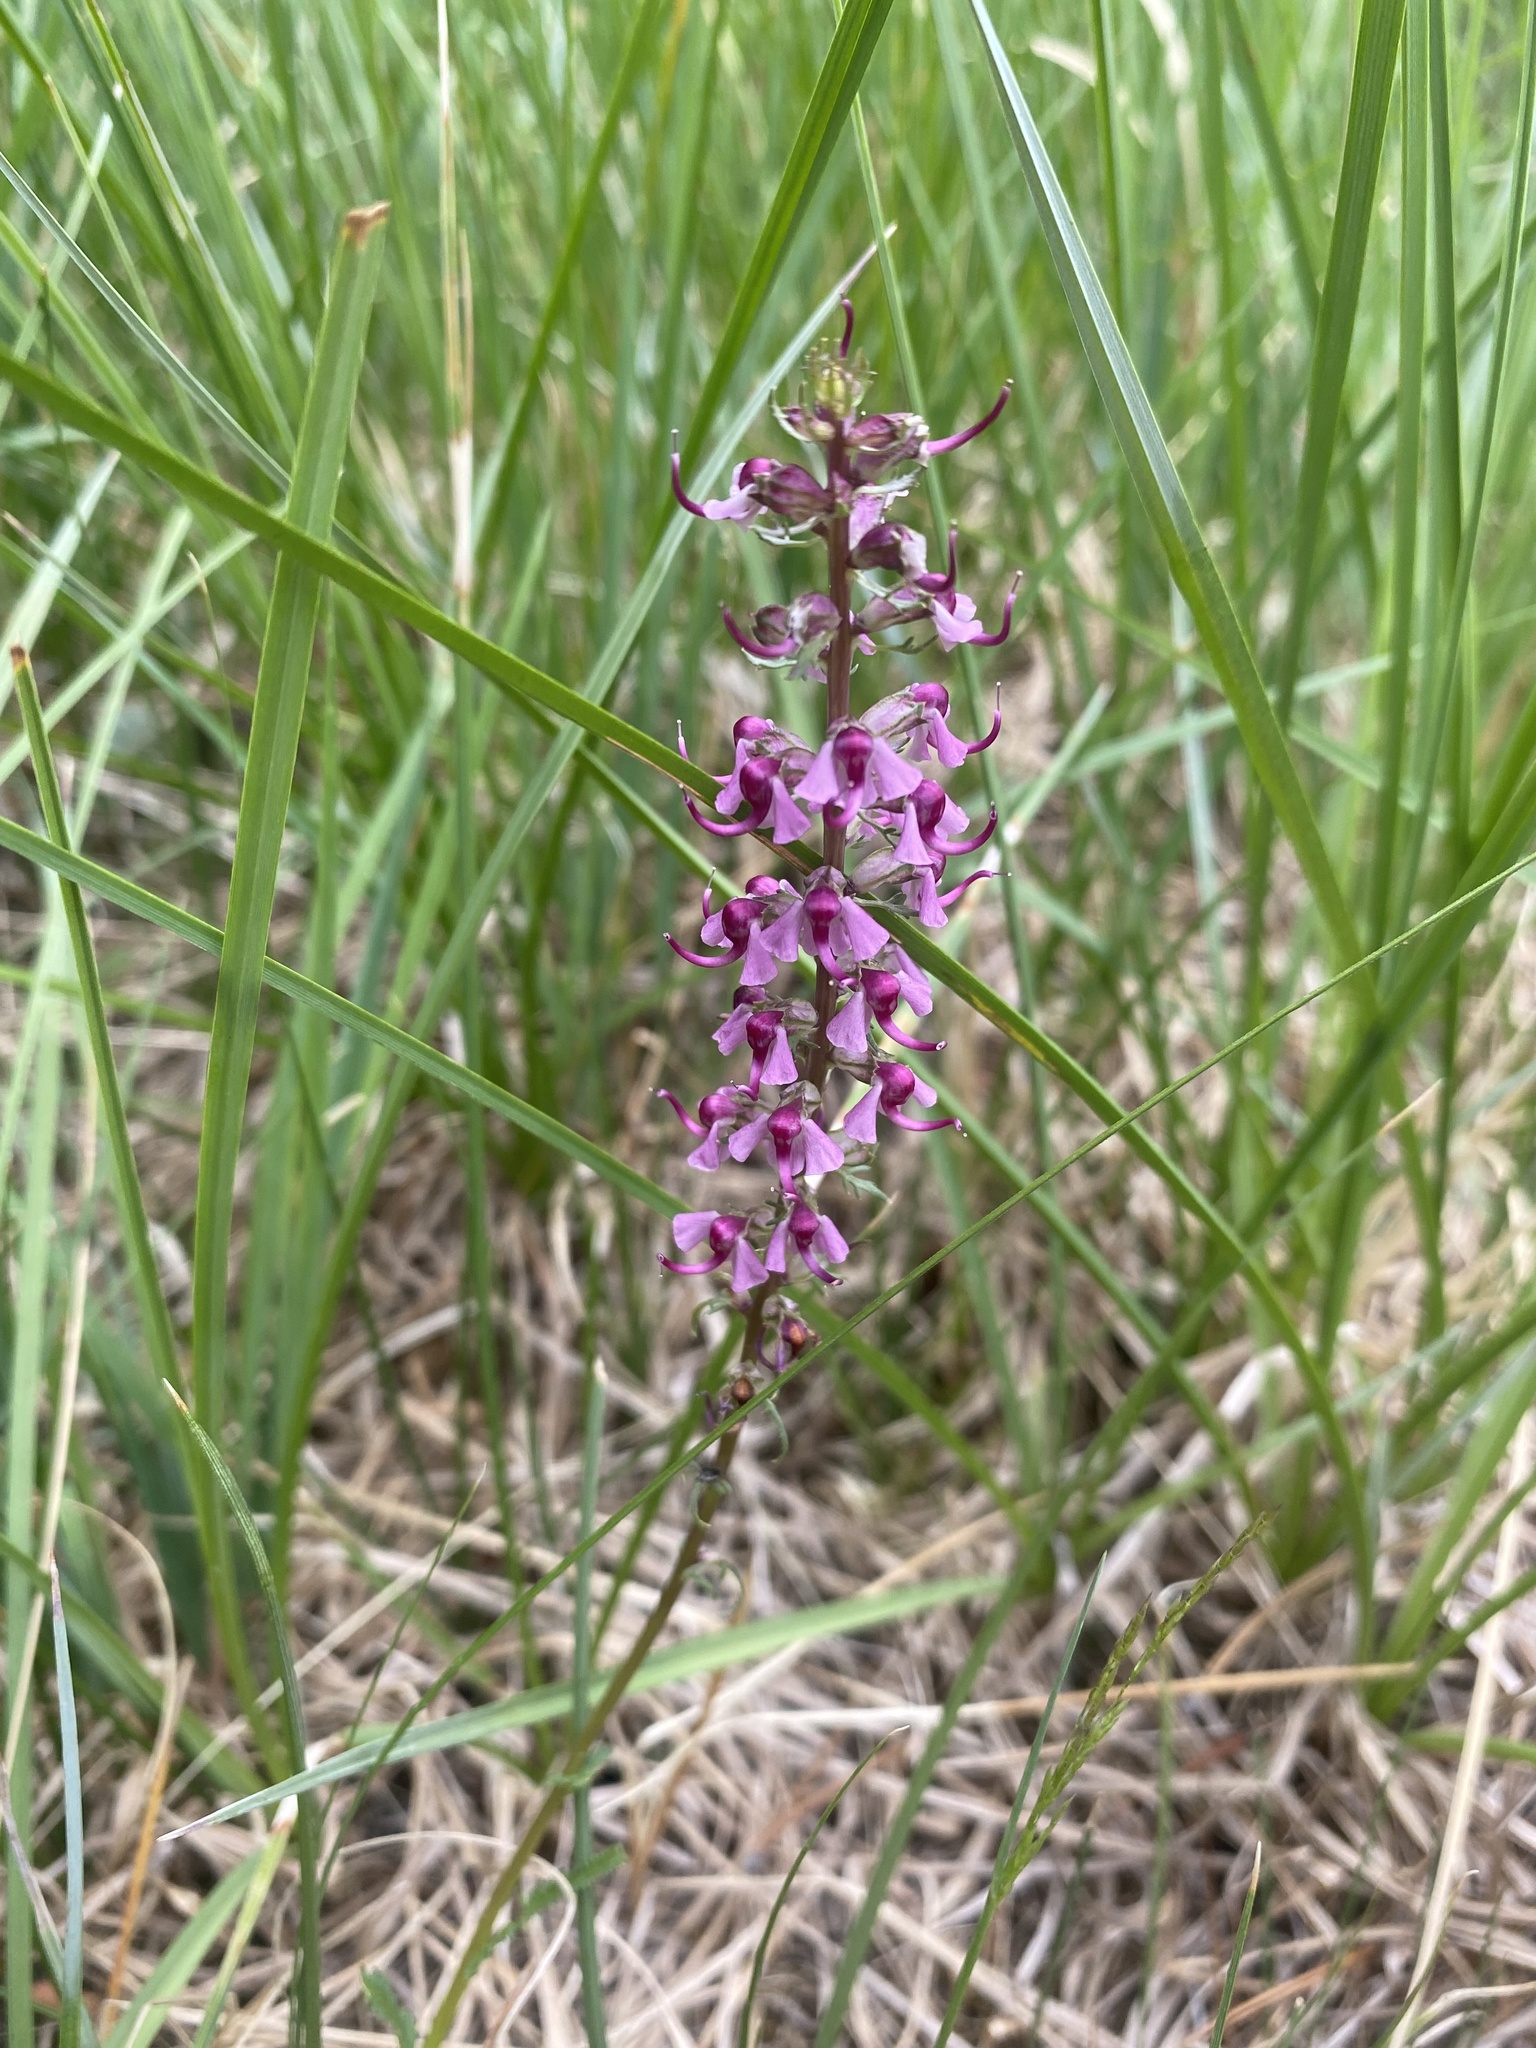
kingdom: Plantae
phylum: Tracheophyta
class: Magnoliopsida
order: Lamiales
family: Orobanchaceae
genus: Pedicularis
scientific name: Pedicularis groenlandica
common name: Elephant's-head
